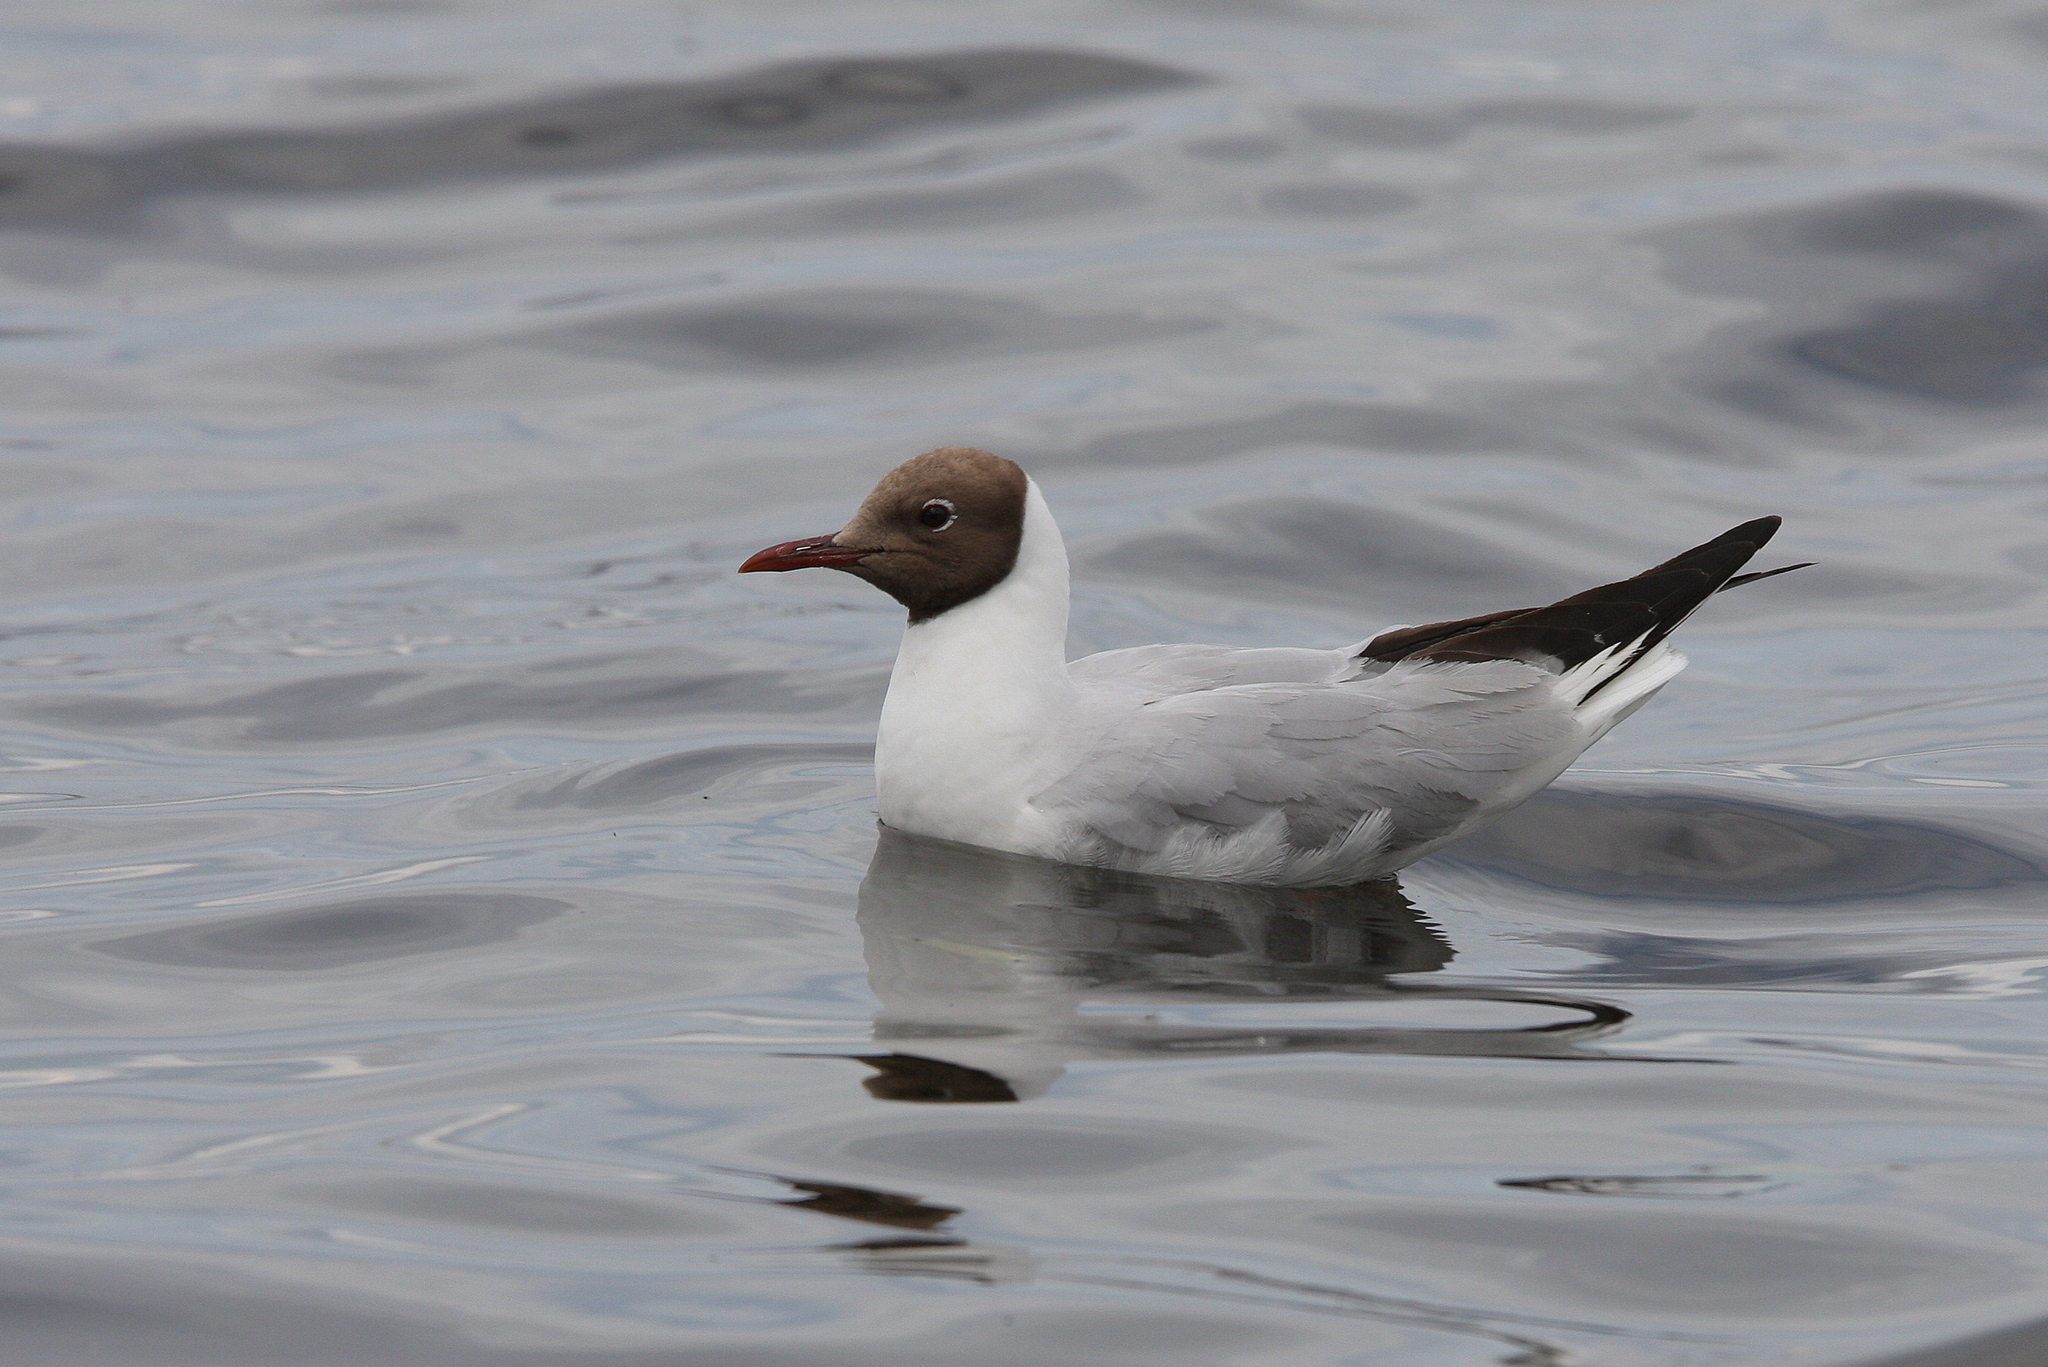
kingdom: Animalia
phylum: Chordata
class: Aves
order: Charadriiformes
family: Laridae
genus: Chroicocephalus
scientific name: Chroicocephalus ridibundus
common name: Black-headed gull
